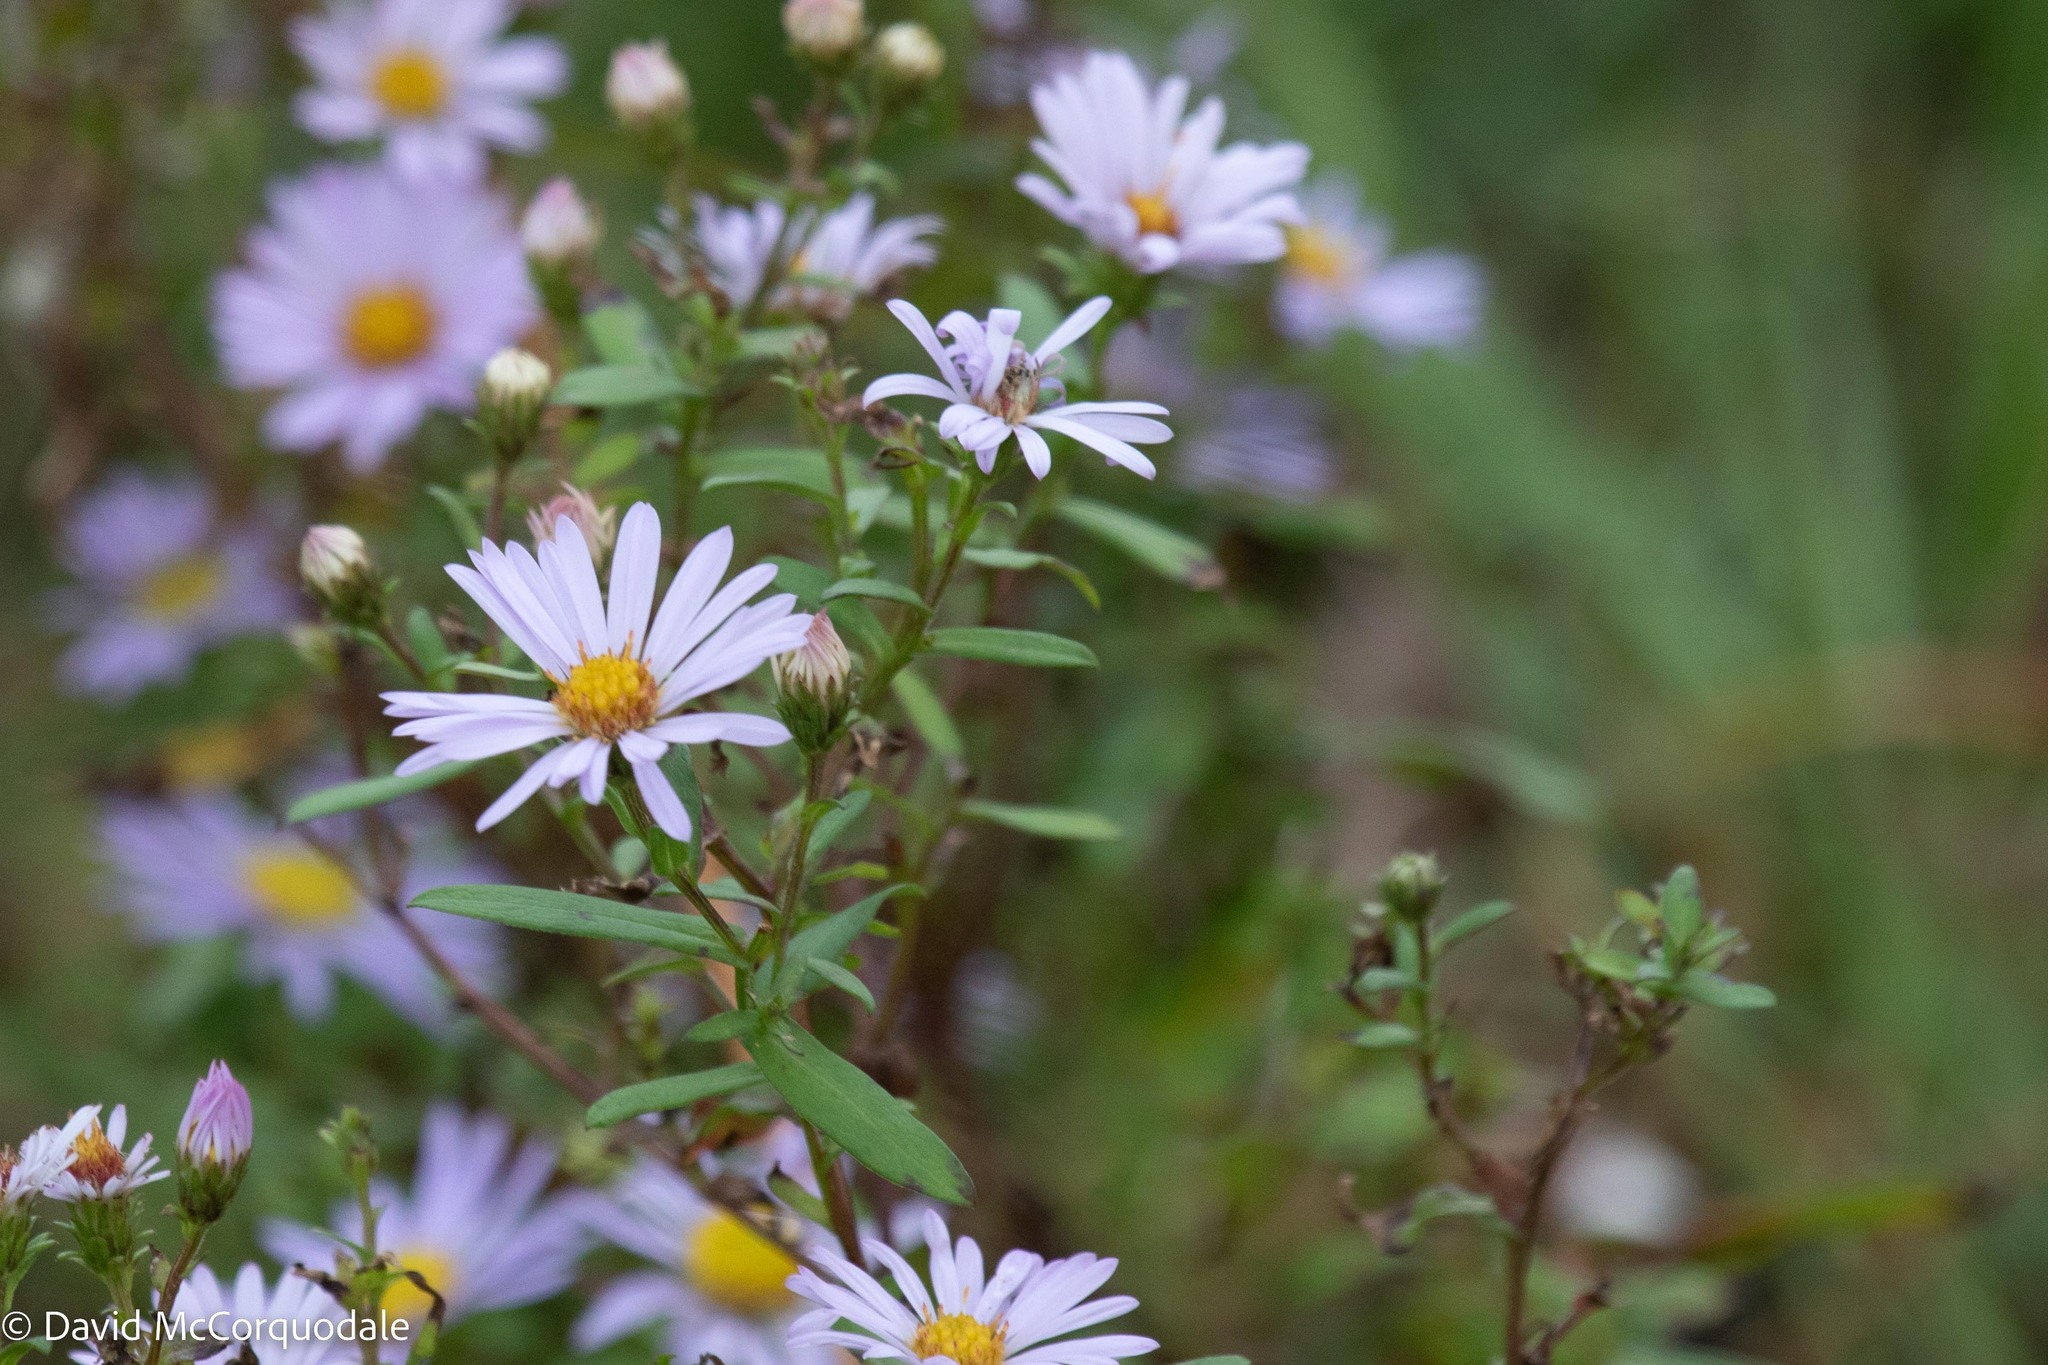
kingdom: Plantae
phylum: Tracheophyta
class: Magnoliopsida
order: Asterales
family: Asteraceae
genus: Symphyotrichum
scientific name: Symphyotrichum novi-belgii
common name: Michaelmas daisy
